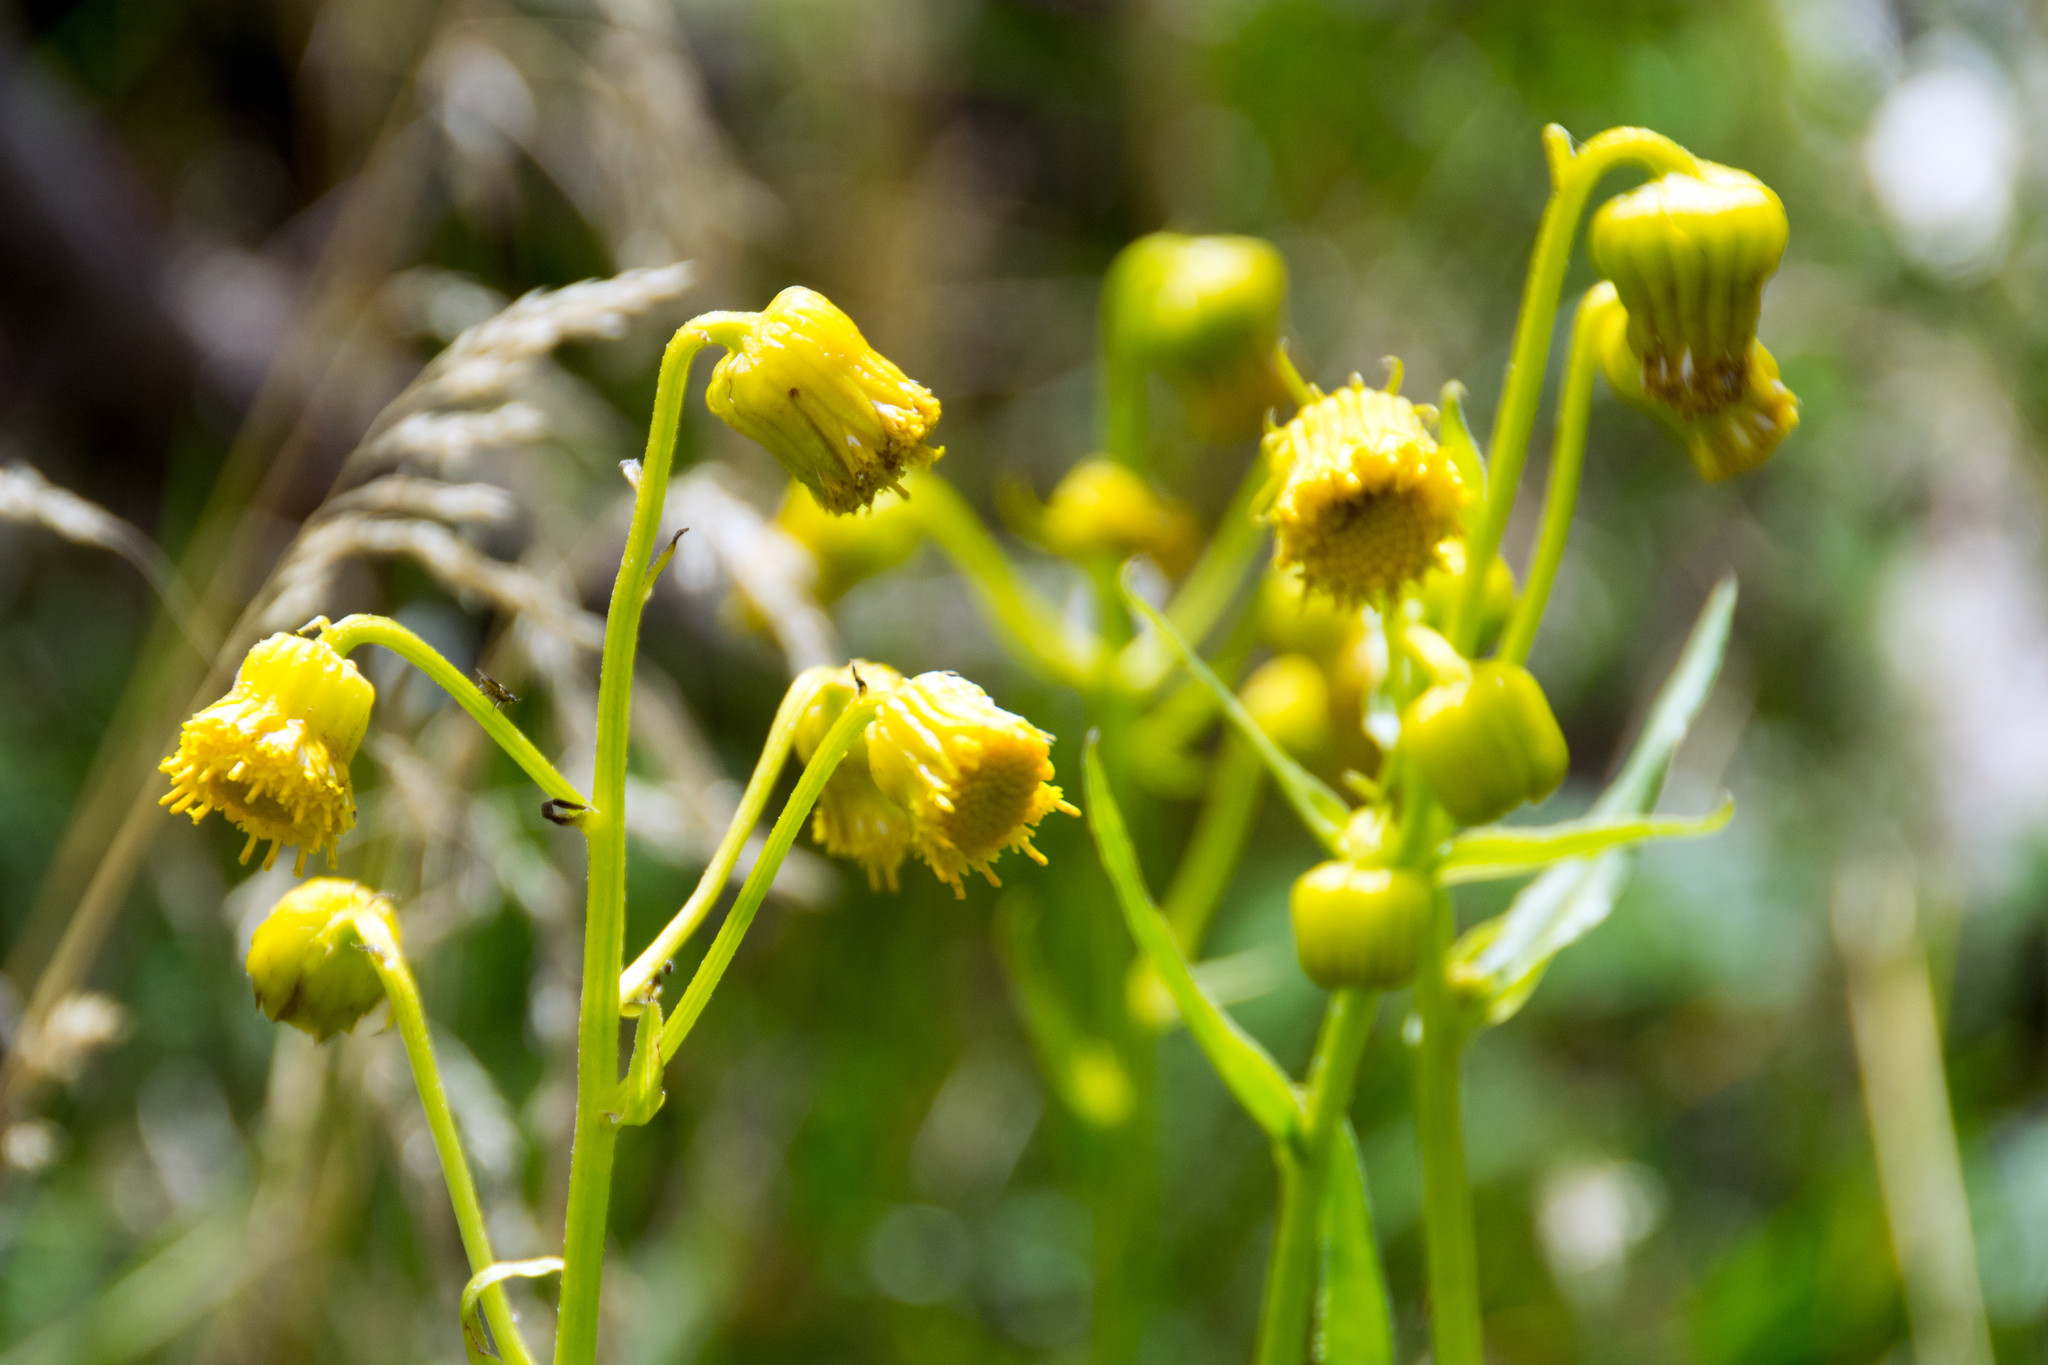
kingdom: Plantae
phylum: Tracheophyta
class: Magnoliopsida
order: Asterales
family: Asteraceae
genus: Senecio
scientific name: Senecio bigelovii
